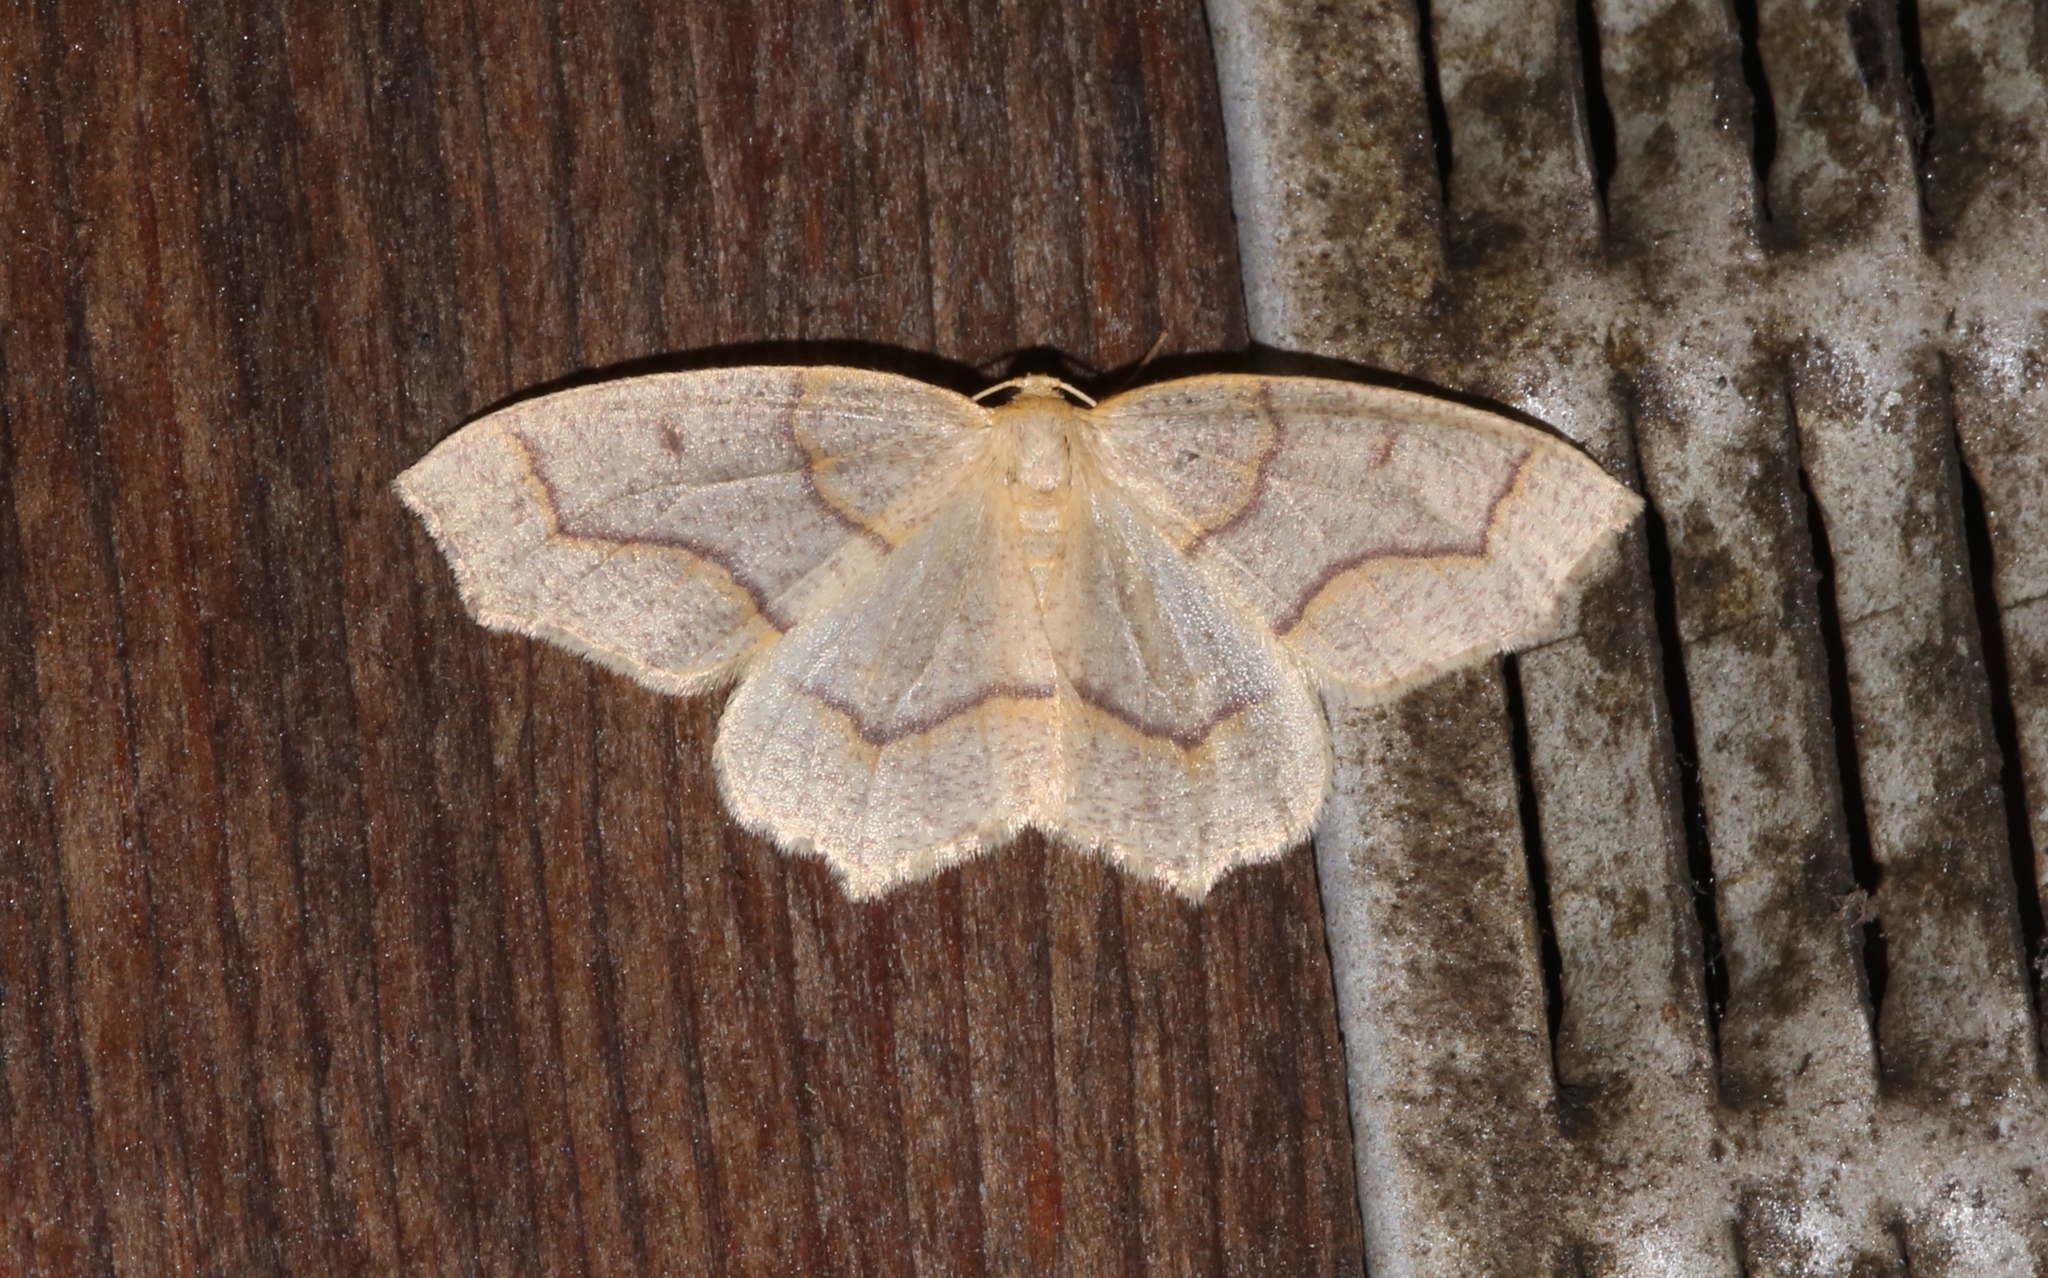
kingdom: Animalia
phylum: Arthropoda
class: Insecta
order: Lepidoptera
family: Geometridae
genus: Lambdina
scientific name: Lambdina fiscellaria
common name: Hemlock looper
